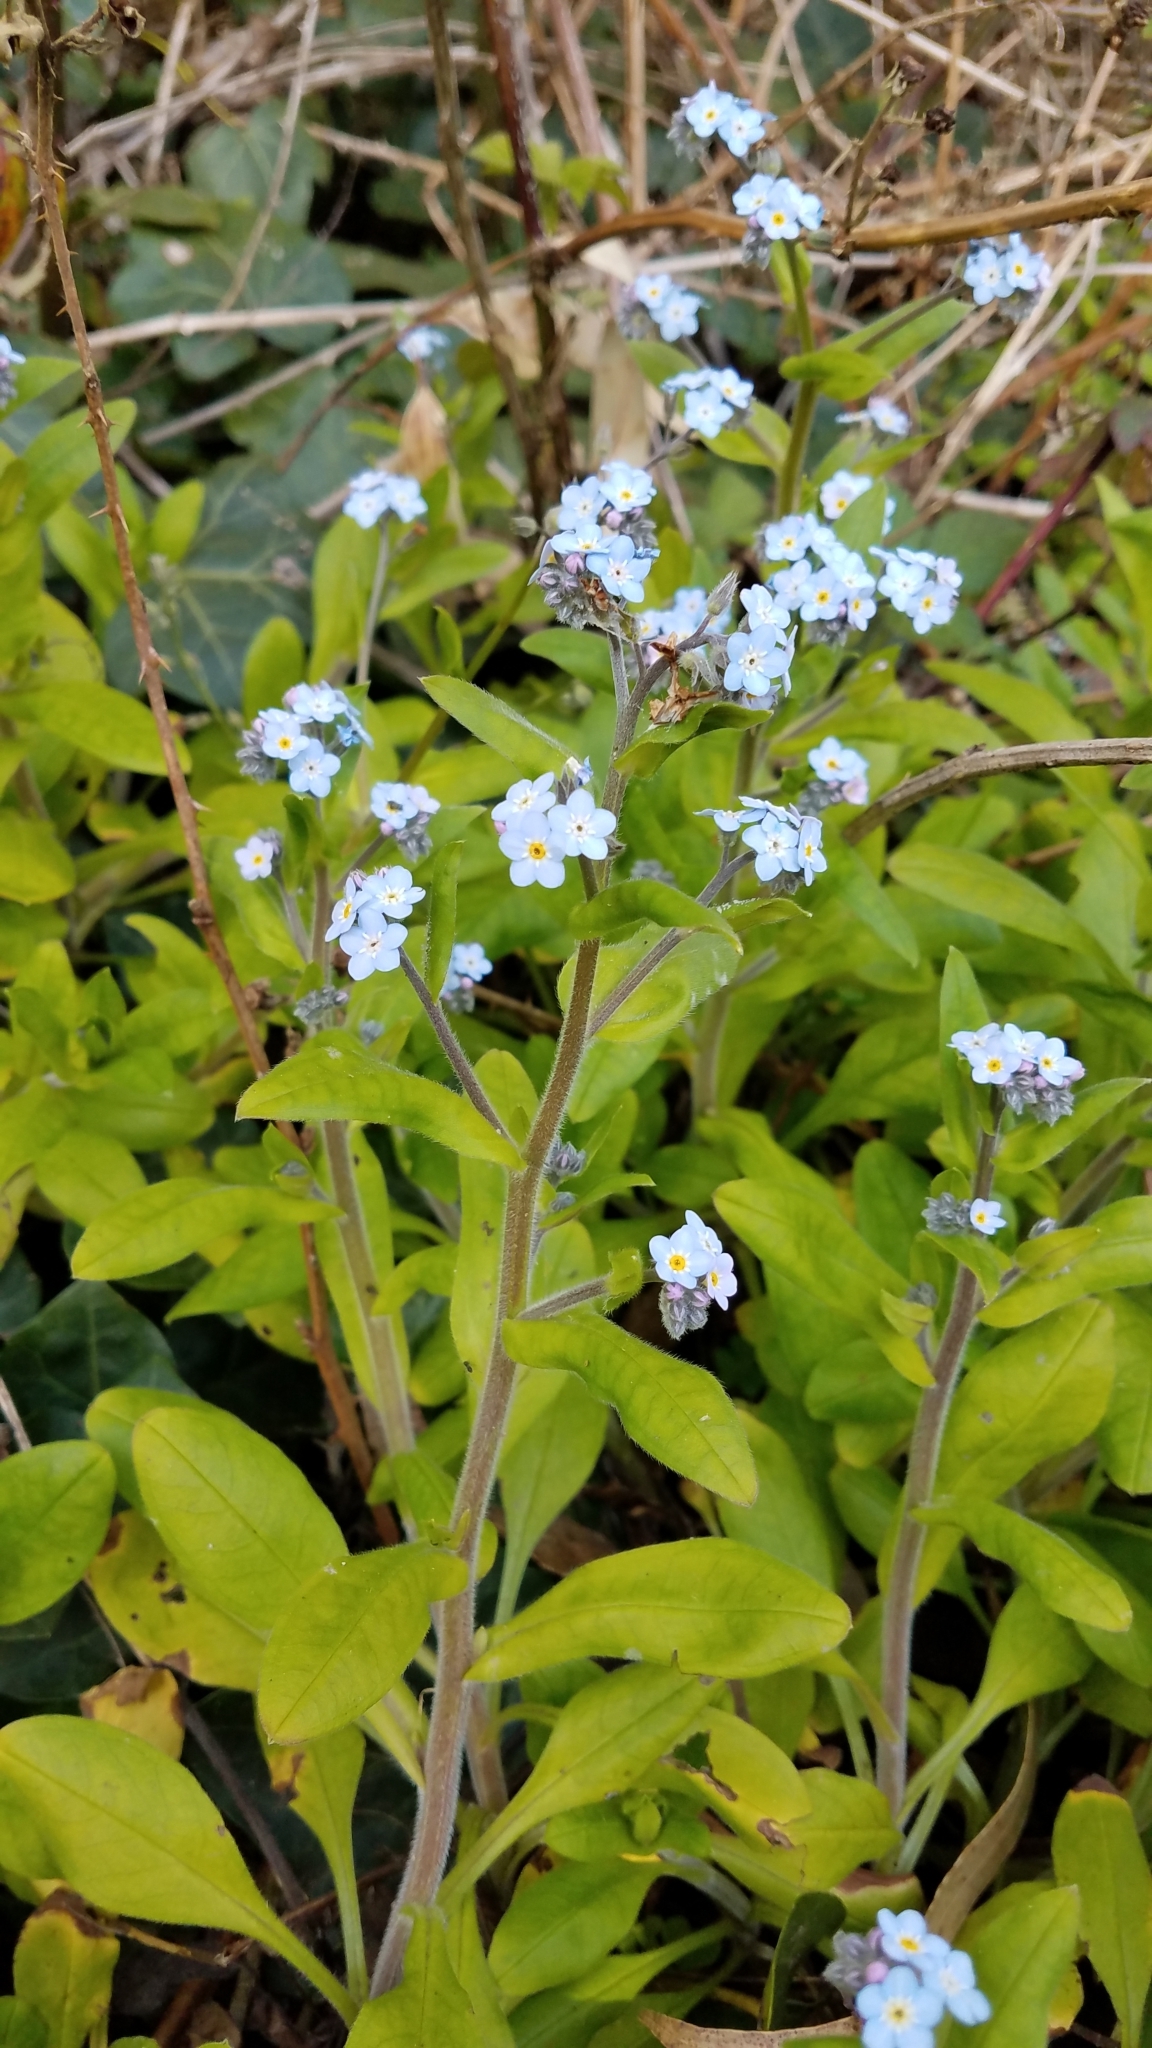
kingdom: Plantae
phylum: Tracheophyta
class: Magnoliopsida
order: Boraginales
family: Boraginaceae
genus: Myosotis
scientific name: Myosotis latifolia
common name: Broadleaf forget-me-not
